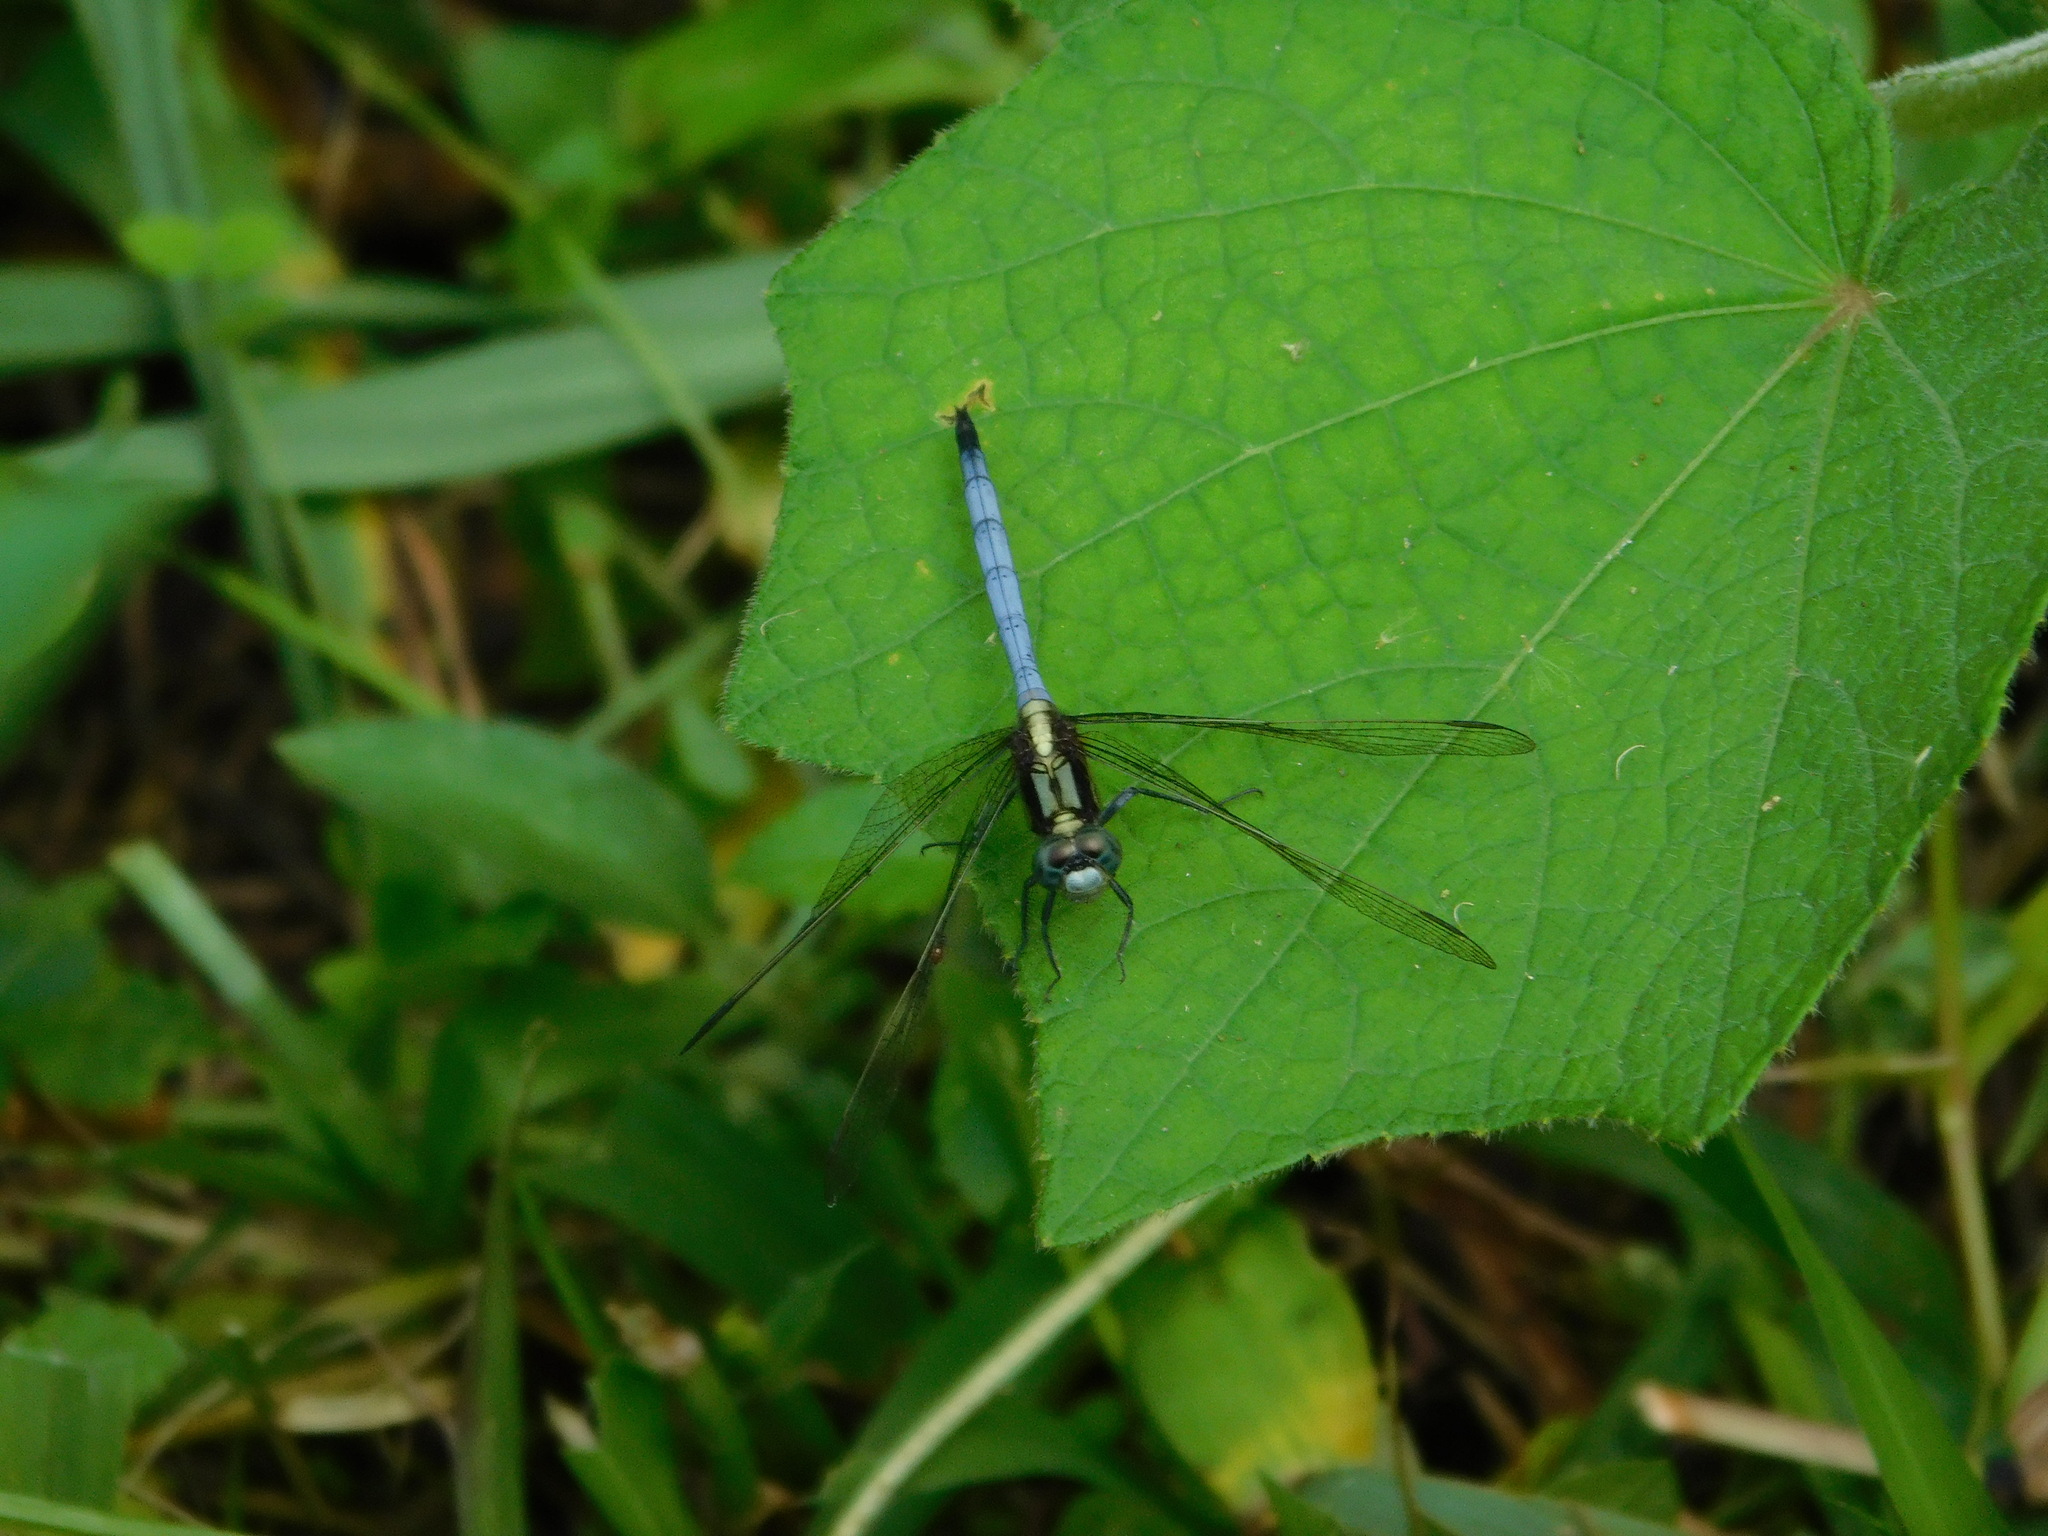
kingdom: Animalia
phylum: Arthropoda
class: Insecta
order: Odonata
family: Libellulidae
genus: Orthetrum
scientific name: Orthetrum luzonicum
